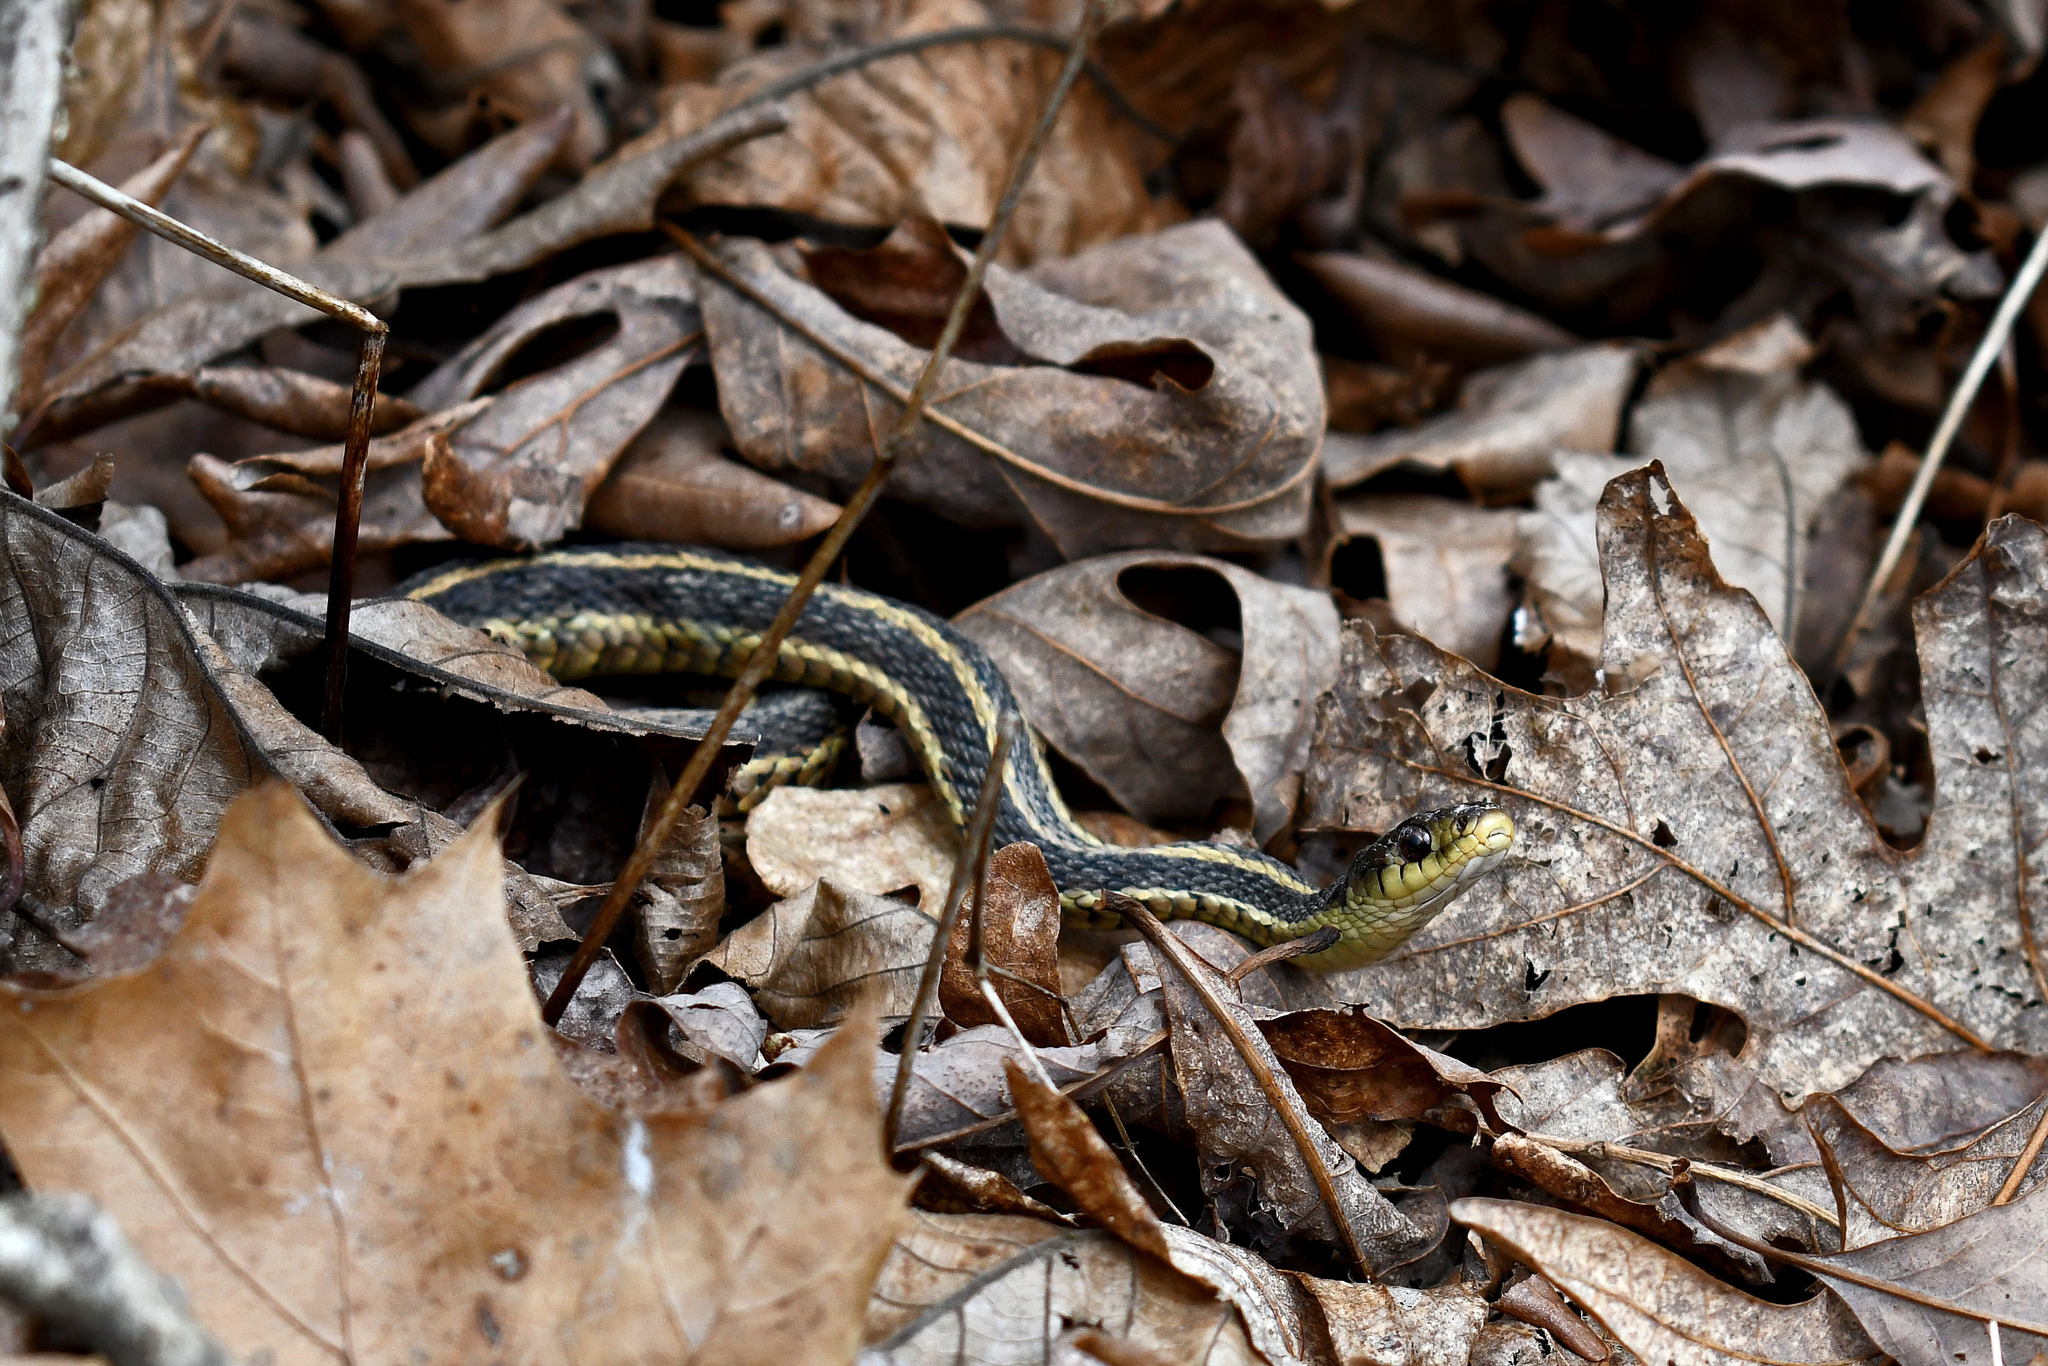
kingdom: Animalia
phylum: Chordata
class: Squamata
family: Colubridae
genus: Thamnophis
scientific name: Thamnophis sirtalis
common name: Common garter snake
